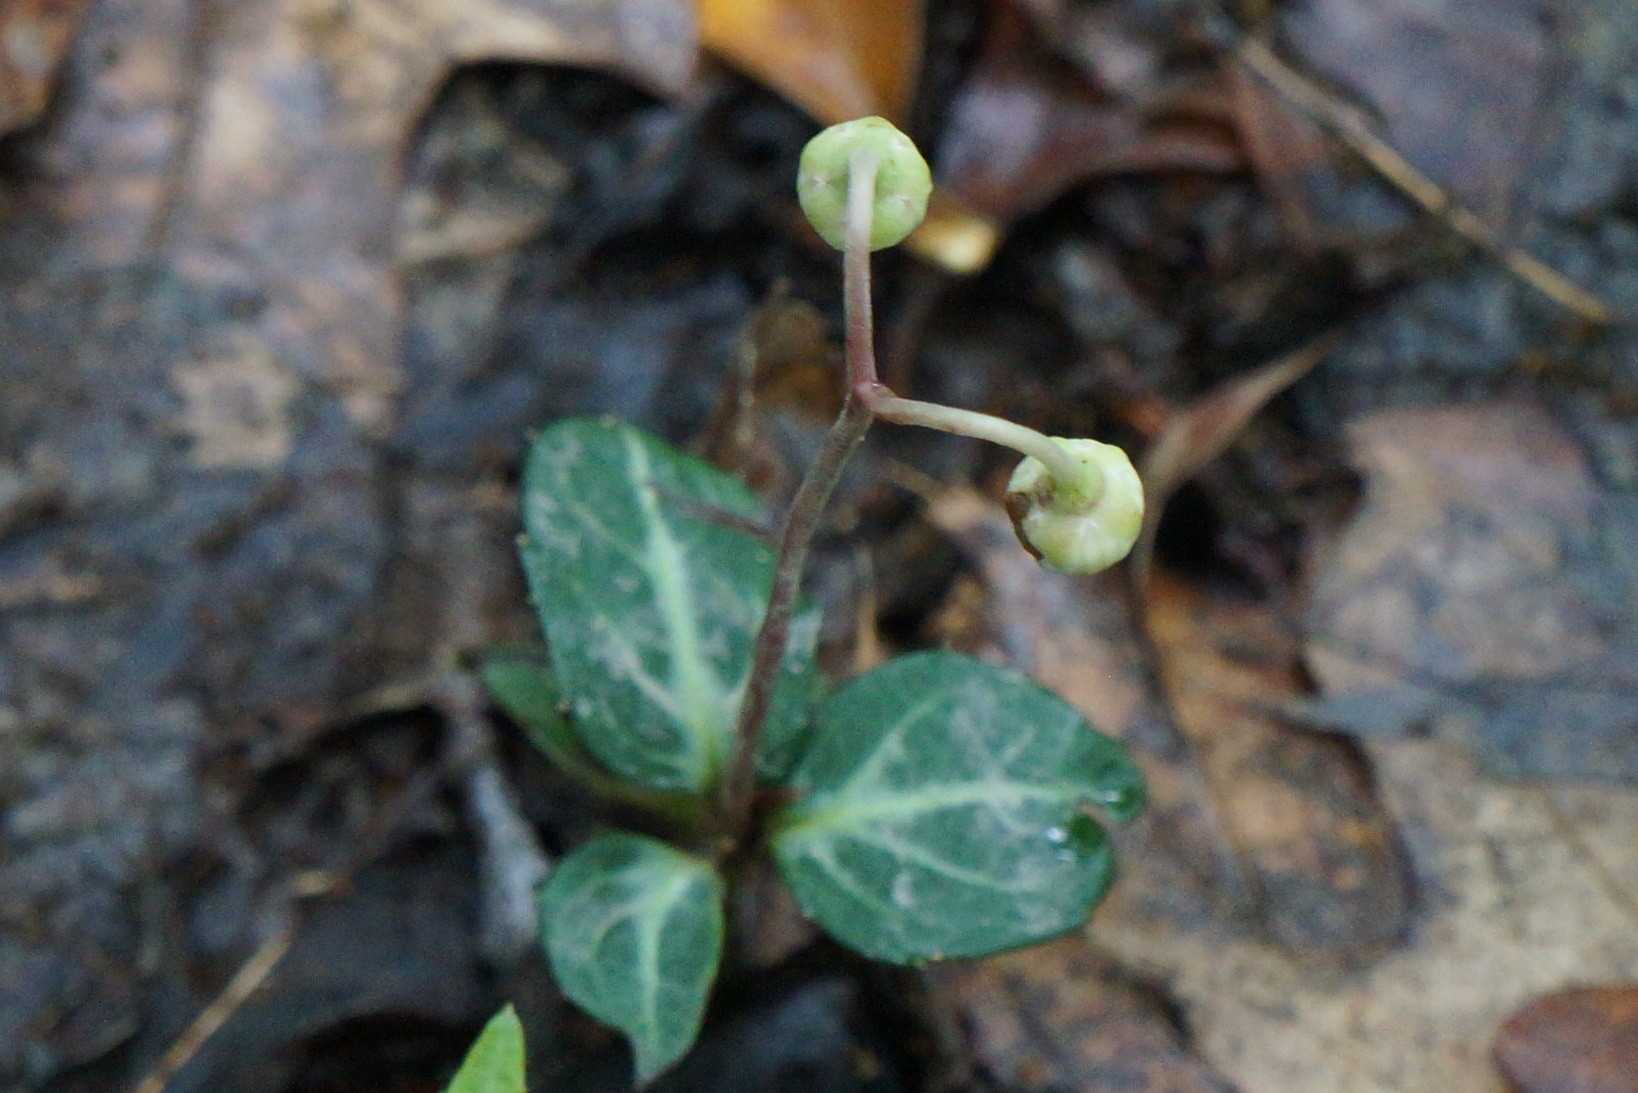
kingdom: Plantae
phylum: Tracheophyta
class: Magnoliopsida
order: Ericales
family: Ericaceae
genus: Chimaphila
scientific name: Chimaphila maculata
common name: Spotted pipsissewa
